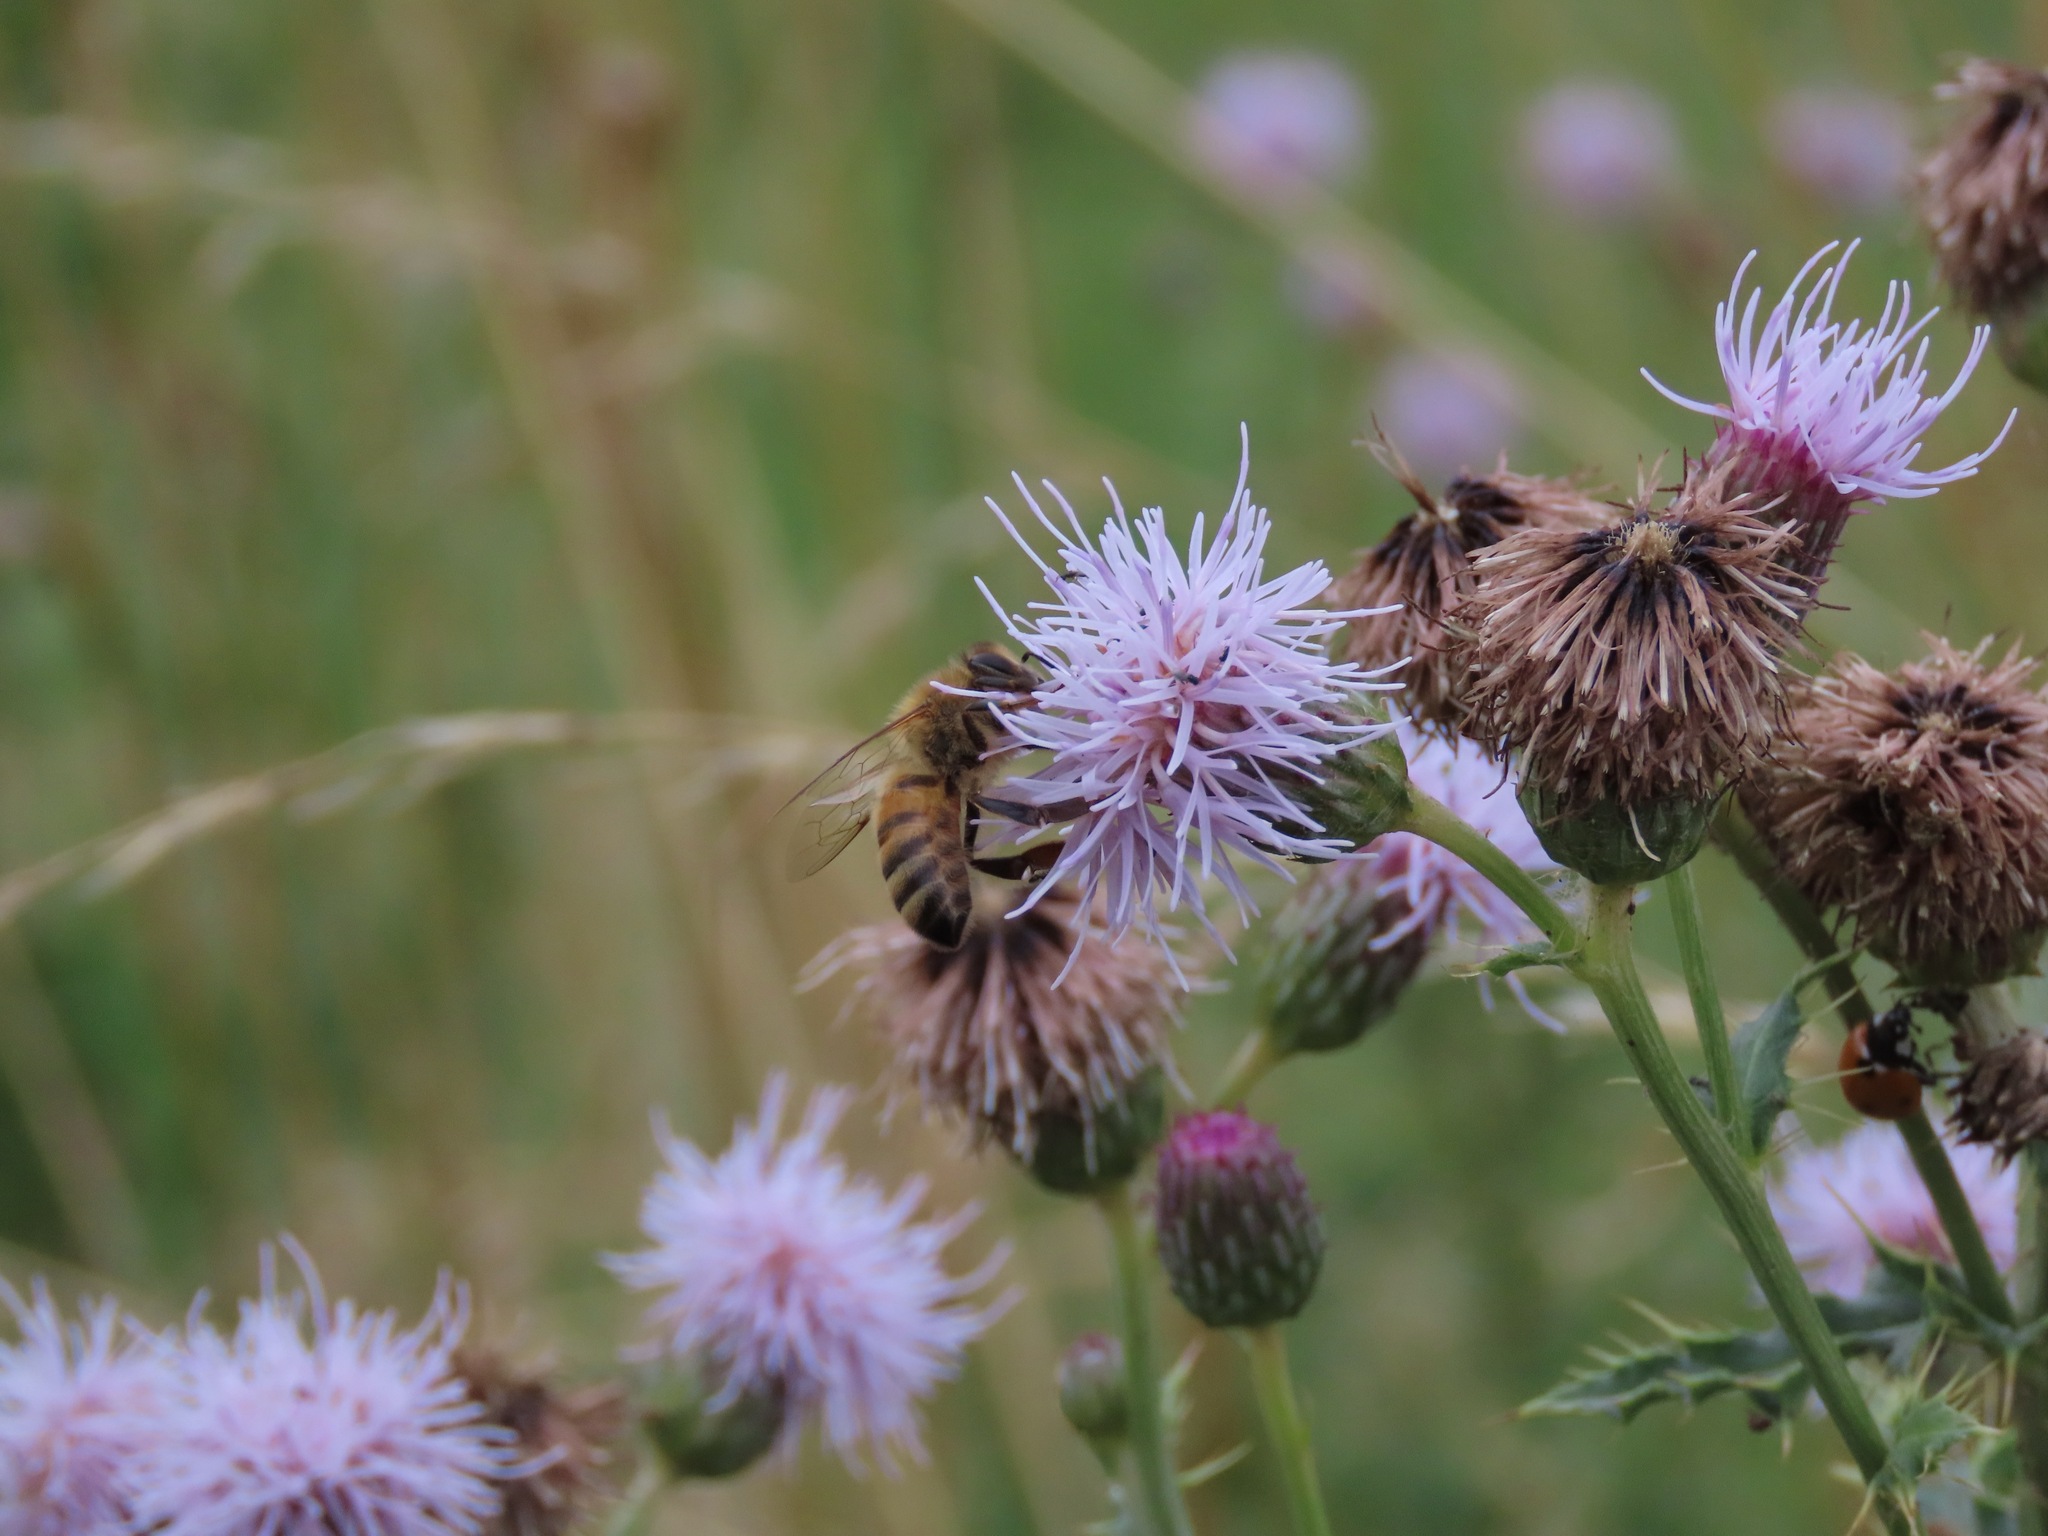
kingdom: Animalia
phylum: Arthropoda
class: Insecta
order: Hymenoptera
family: Apidae
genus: Apis
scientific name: Apis mellifera
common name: Honey bee
